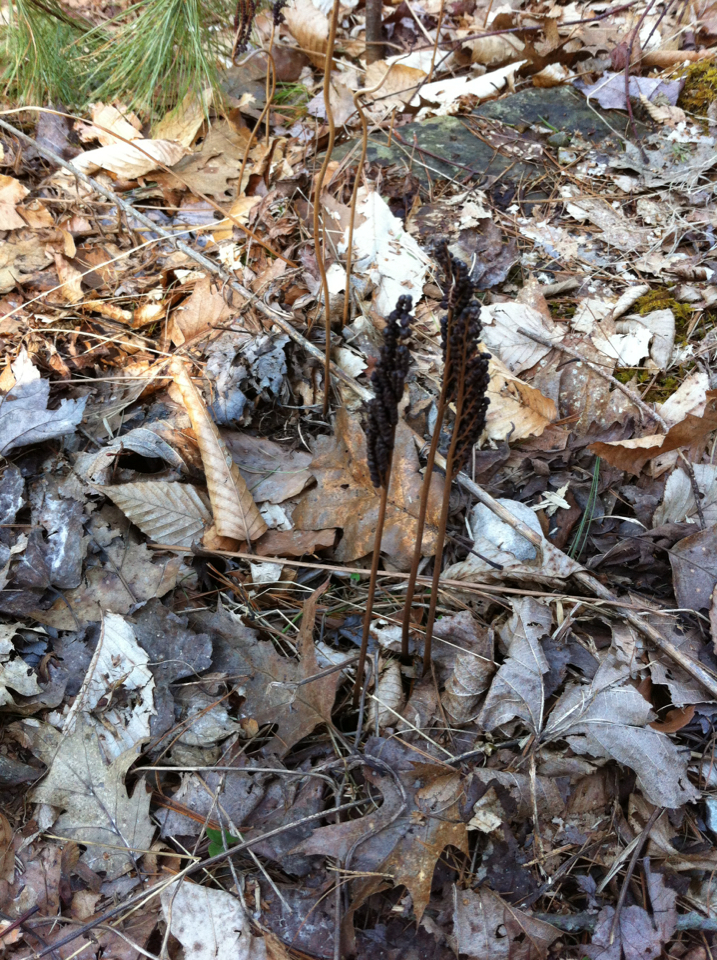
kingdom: Plantae
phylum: Tracheophyta
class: Polypodiopsida
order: Polypodiales
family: Onocleaceae
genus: Onoclea
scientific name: Onoclea sensibilis
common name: Sensitive fern
